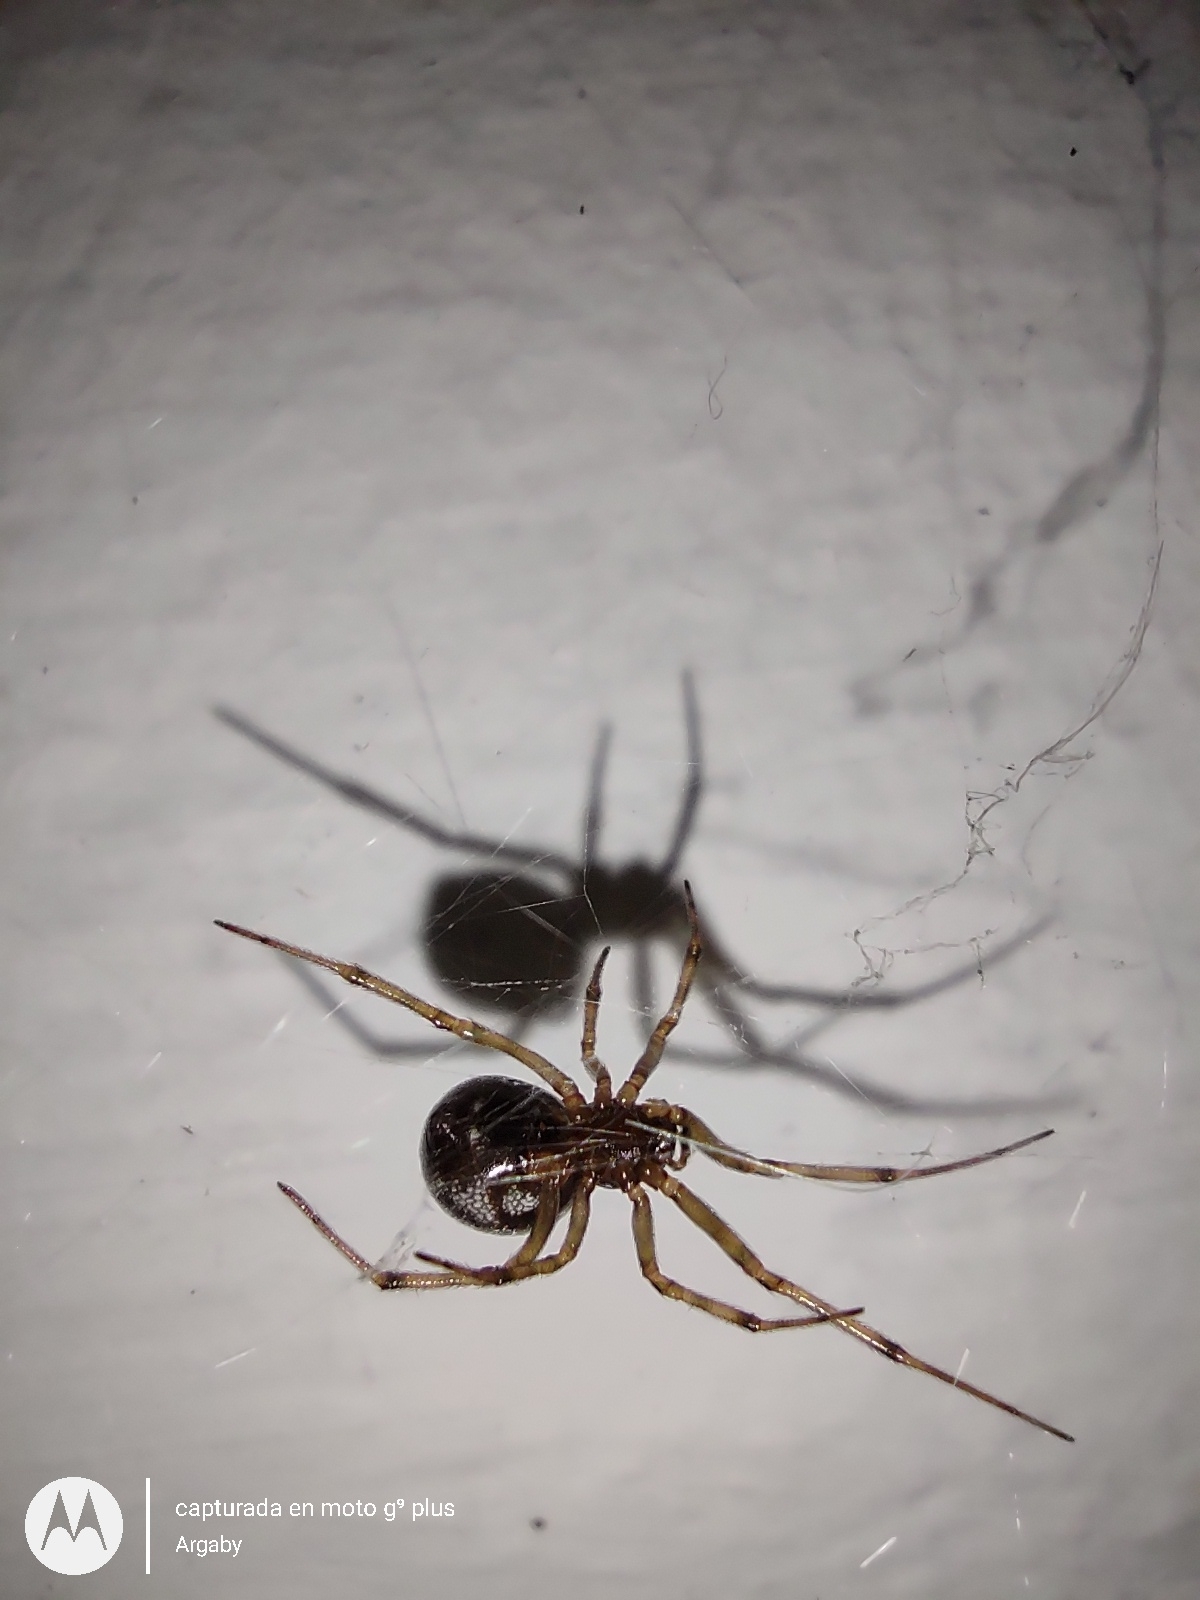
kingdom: Animalia
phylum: Arthropoda
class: Arachnida
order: Araneae
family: Theridiidae
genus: Steatoda
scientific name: Steatoda triangulosa
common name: Triangulate bud spider
